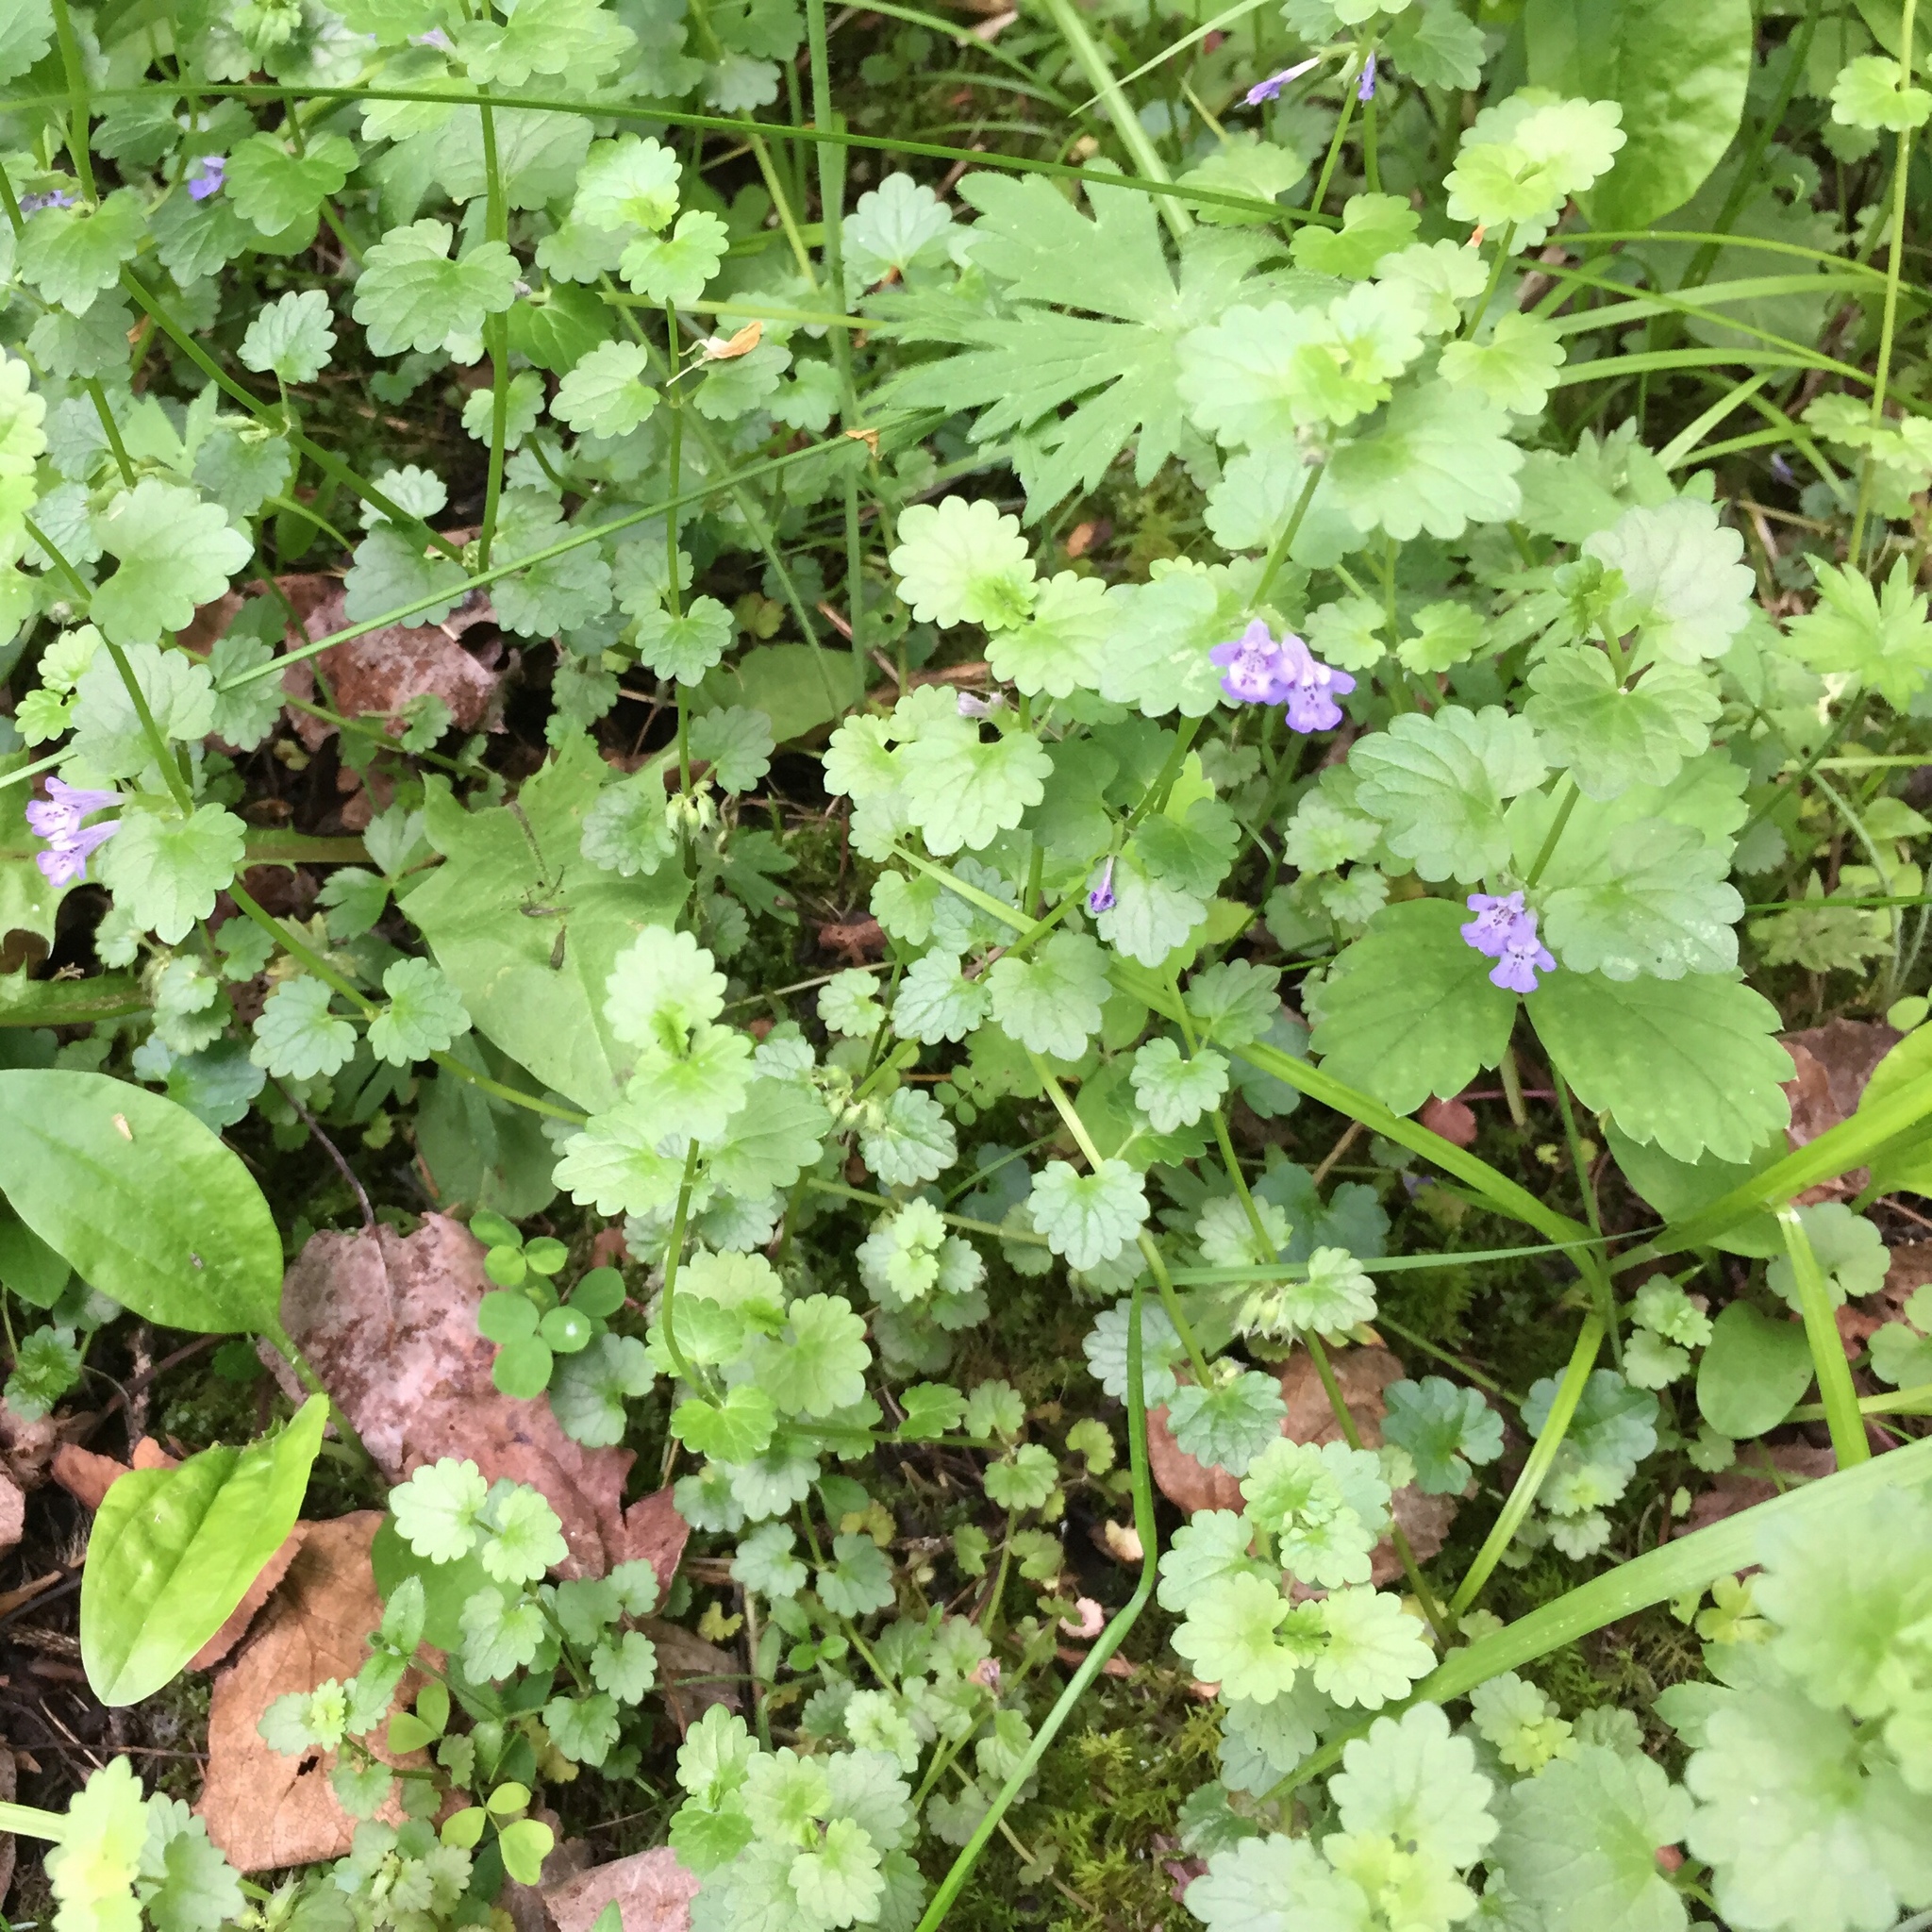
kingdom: Plantae
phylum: Tracheophyta
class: Magnoliopsida
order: Lamiales
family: Lamiaceae
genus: Glechoma
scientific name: Glechoma hederacea
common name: Ground ivy
